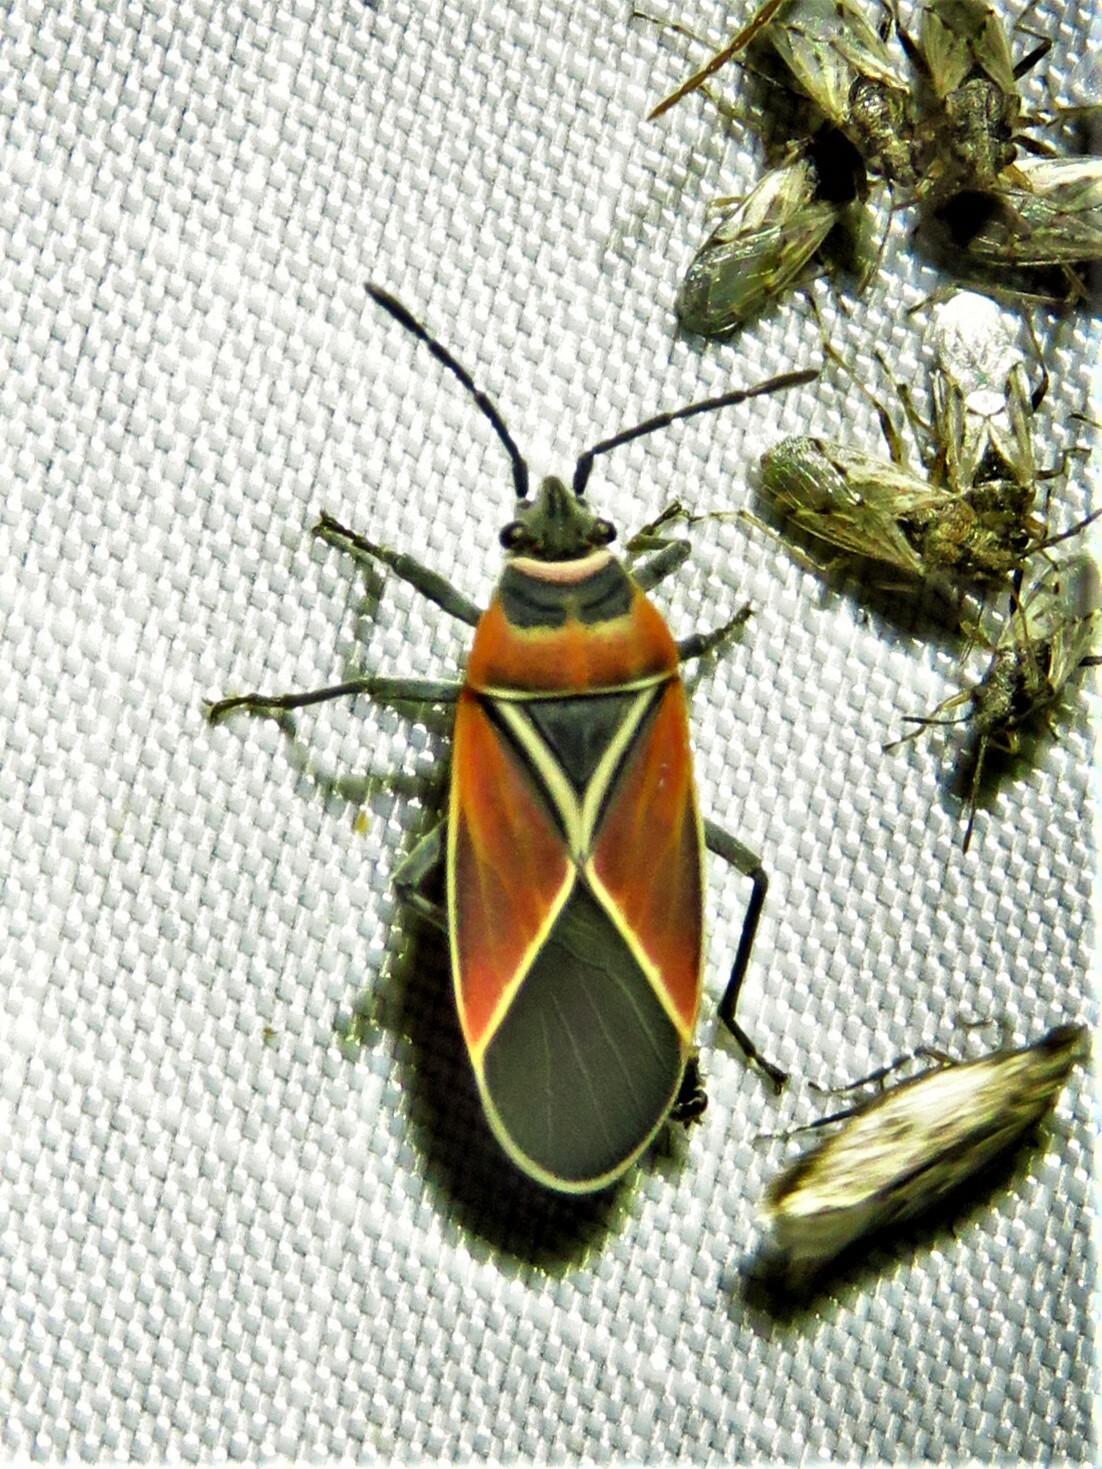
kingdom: Animalia
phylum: Arthropoda
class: Insecta
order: Hemiptera
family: Lygaeidae
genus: Neacoryphus
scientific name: Neacoryphus bicrucis
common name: Lygaeid bug
